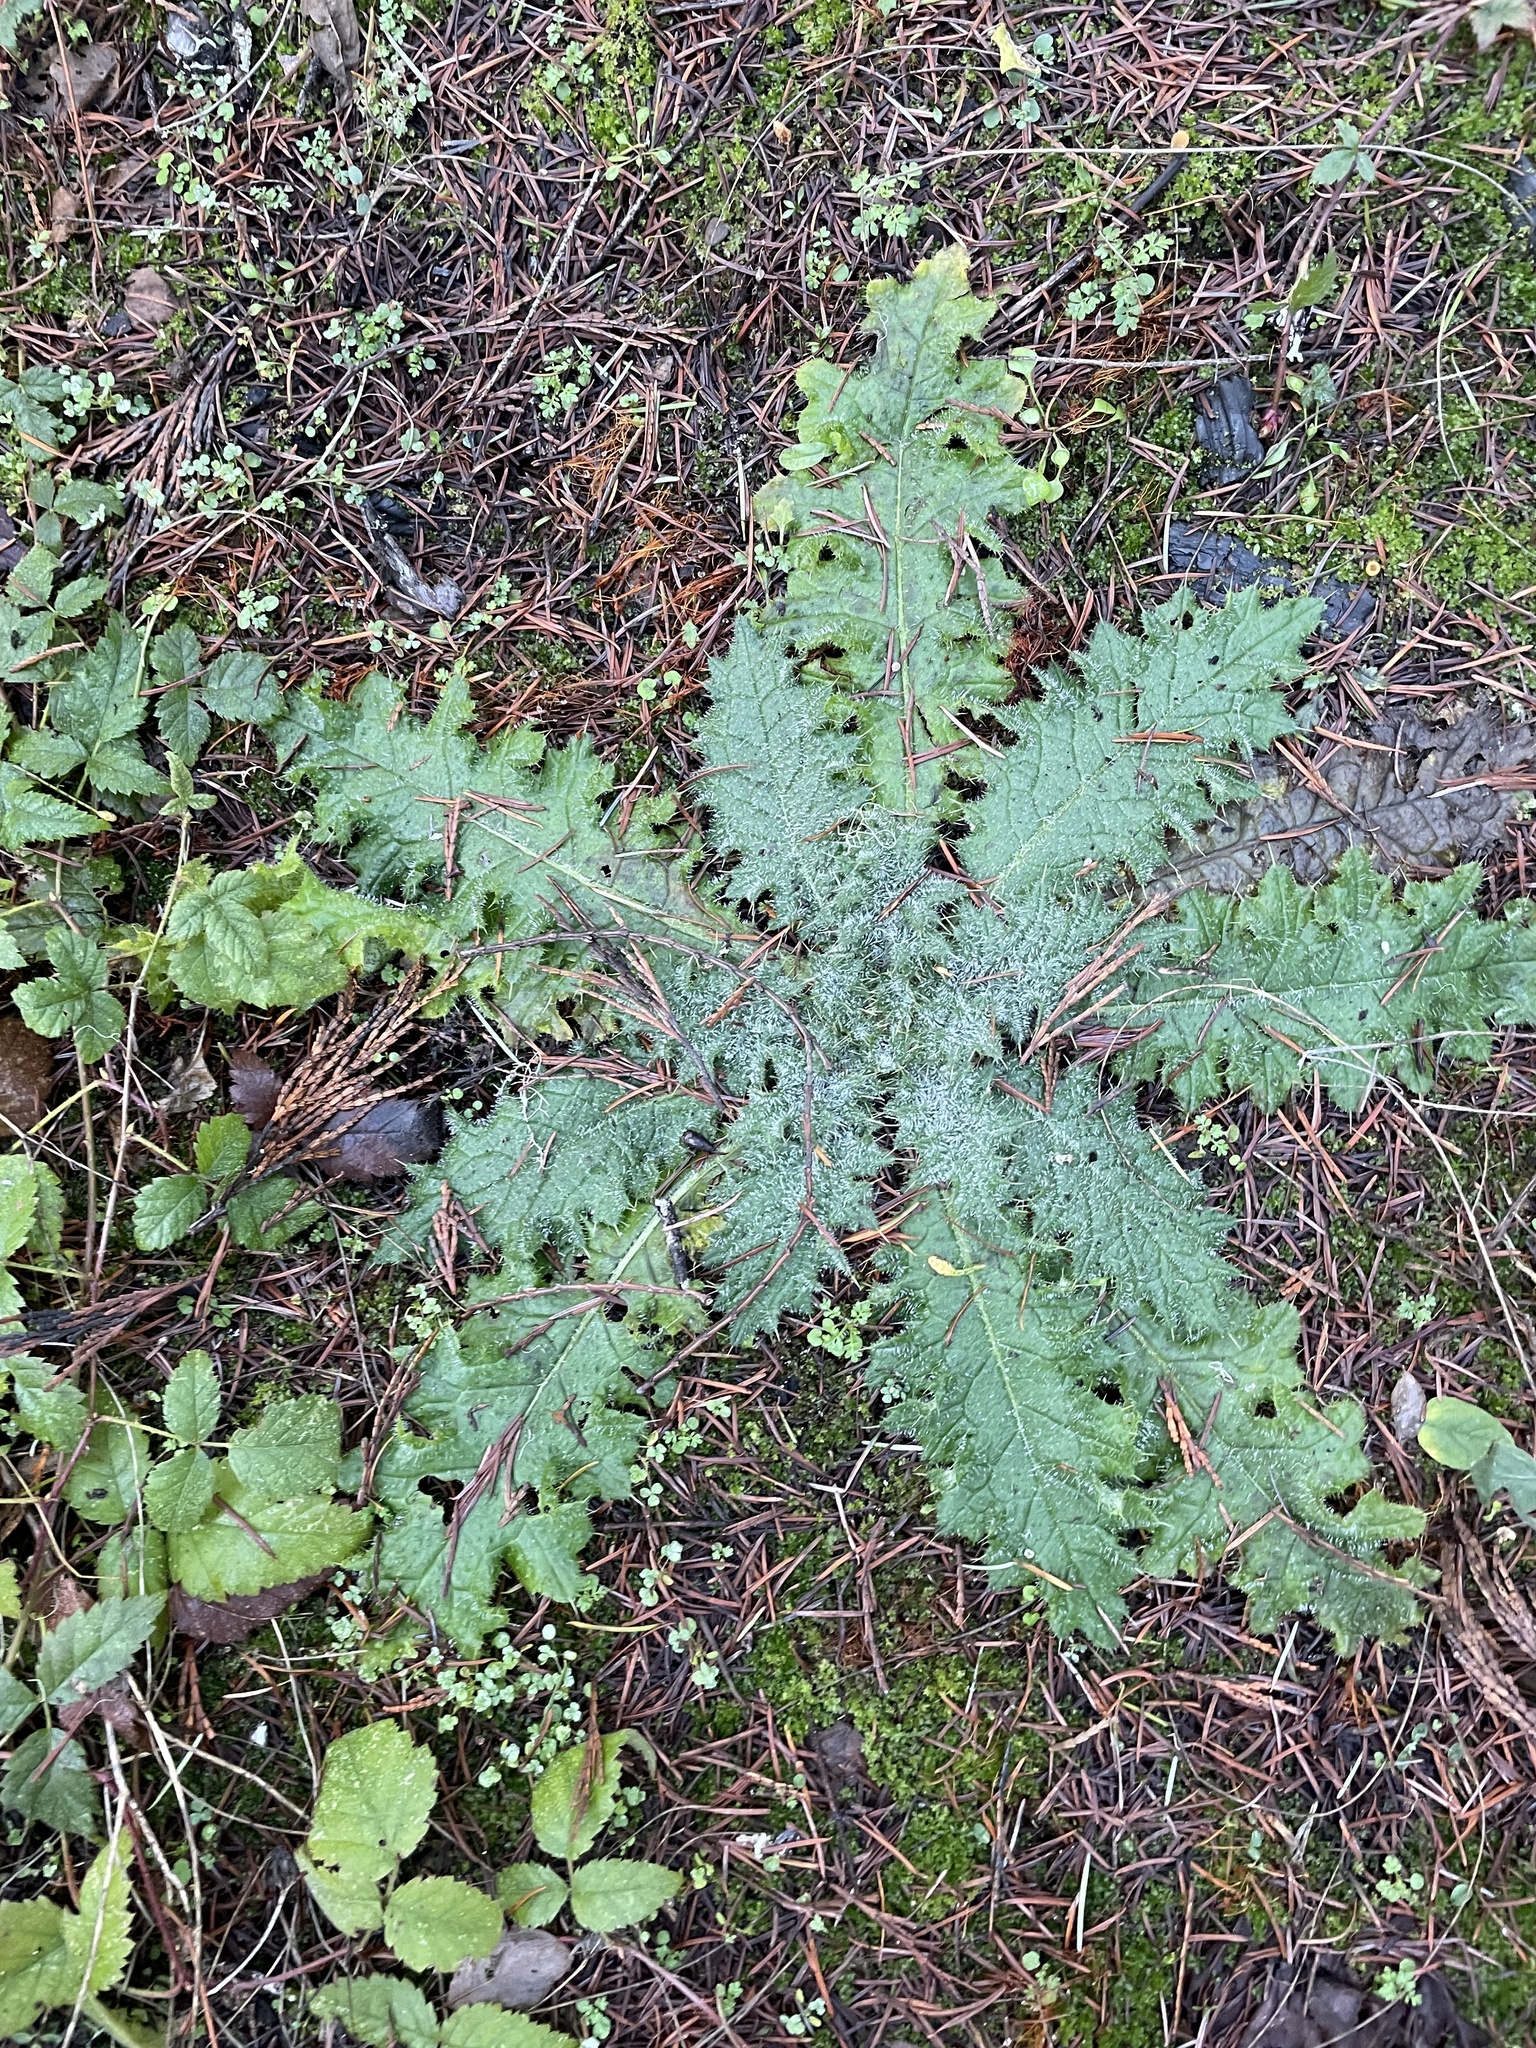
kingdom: Plantae
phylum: Tracheophyta
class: Magnoliopsida
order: Asterales
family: Asteraceae
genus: Cirsium
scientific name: Cirsium vulgare
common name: Bull thistle
